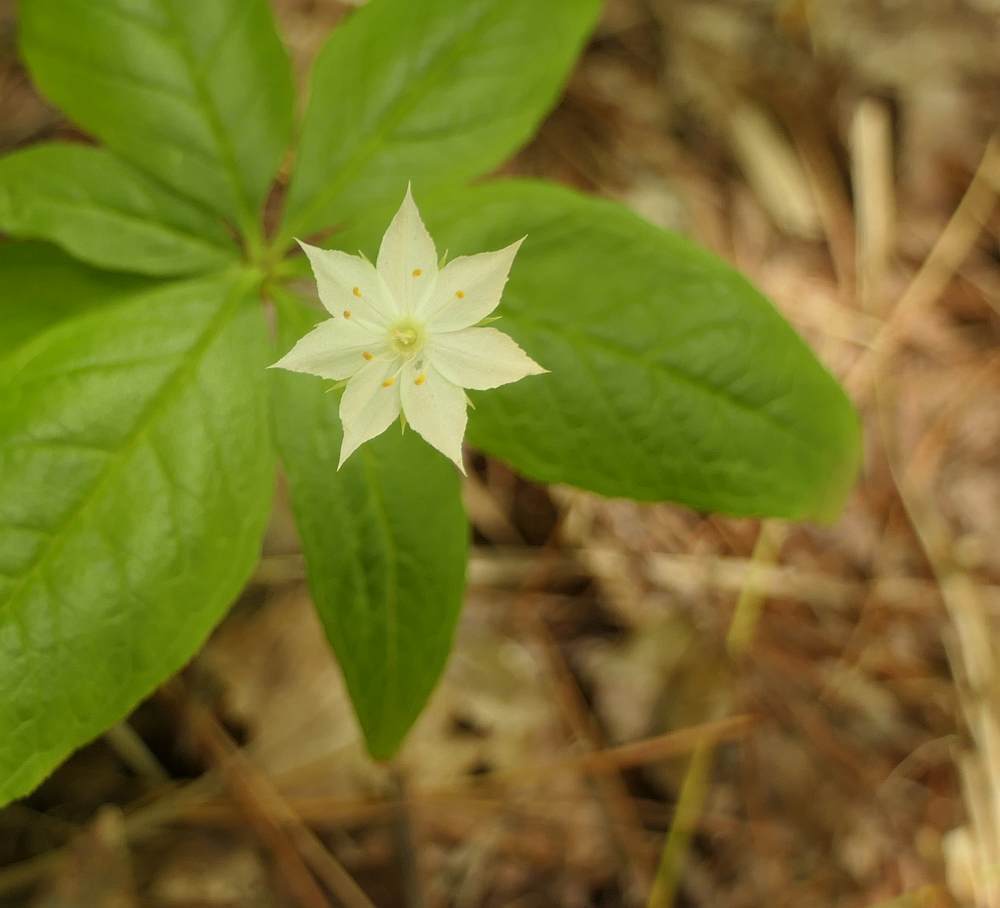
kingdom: Plantae
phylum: Tracheophyta
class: Magnoliopsida
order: Ericales
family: Primulaceae
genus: Lysimachia
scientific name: Lysimachia borealis
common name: American starflower
